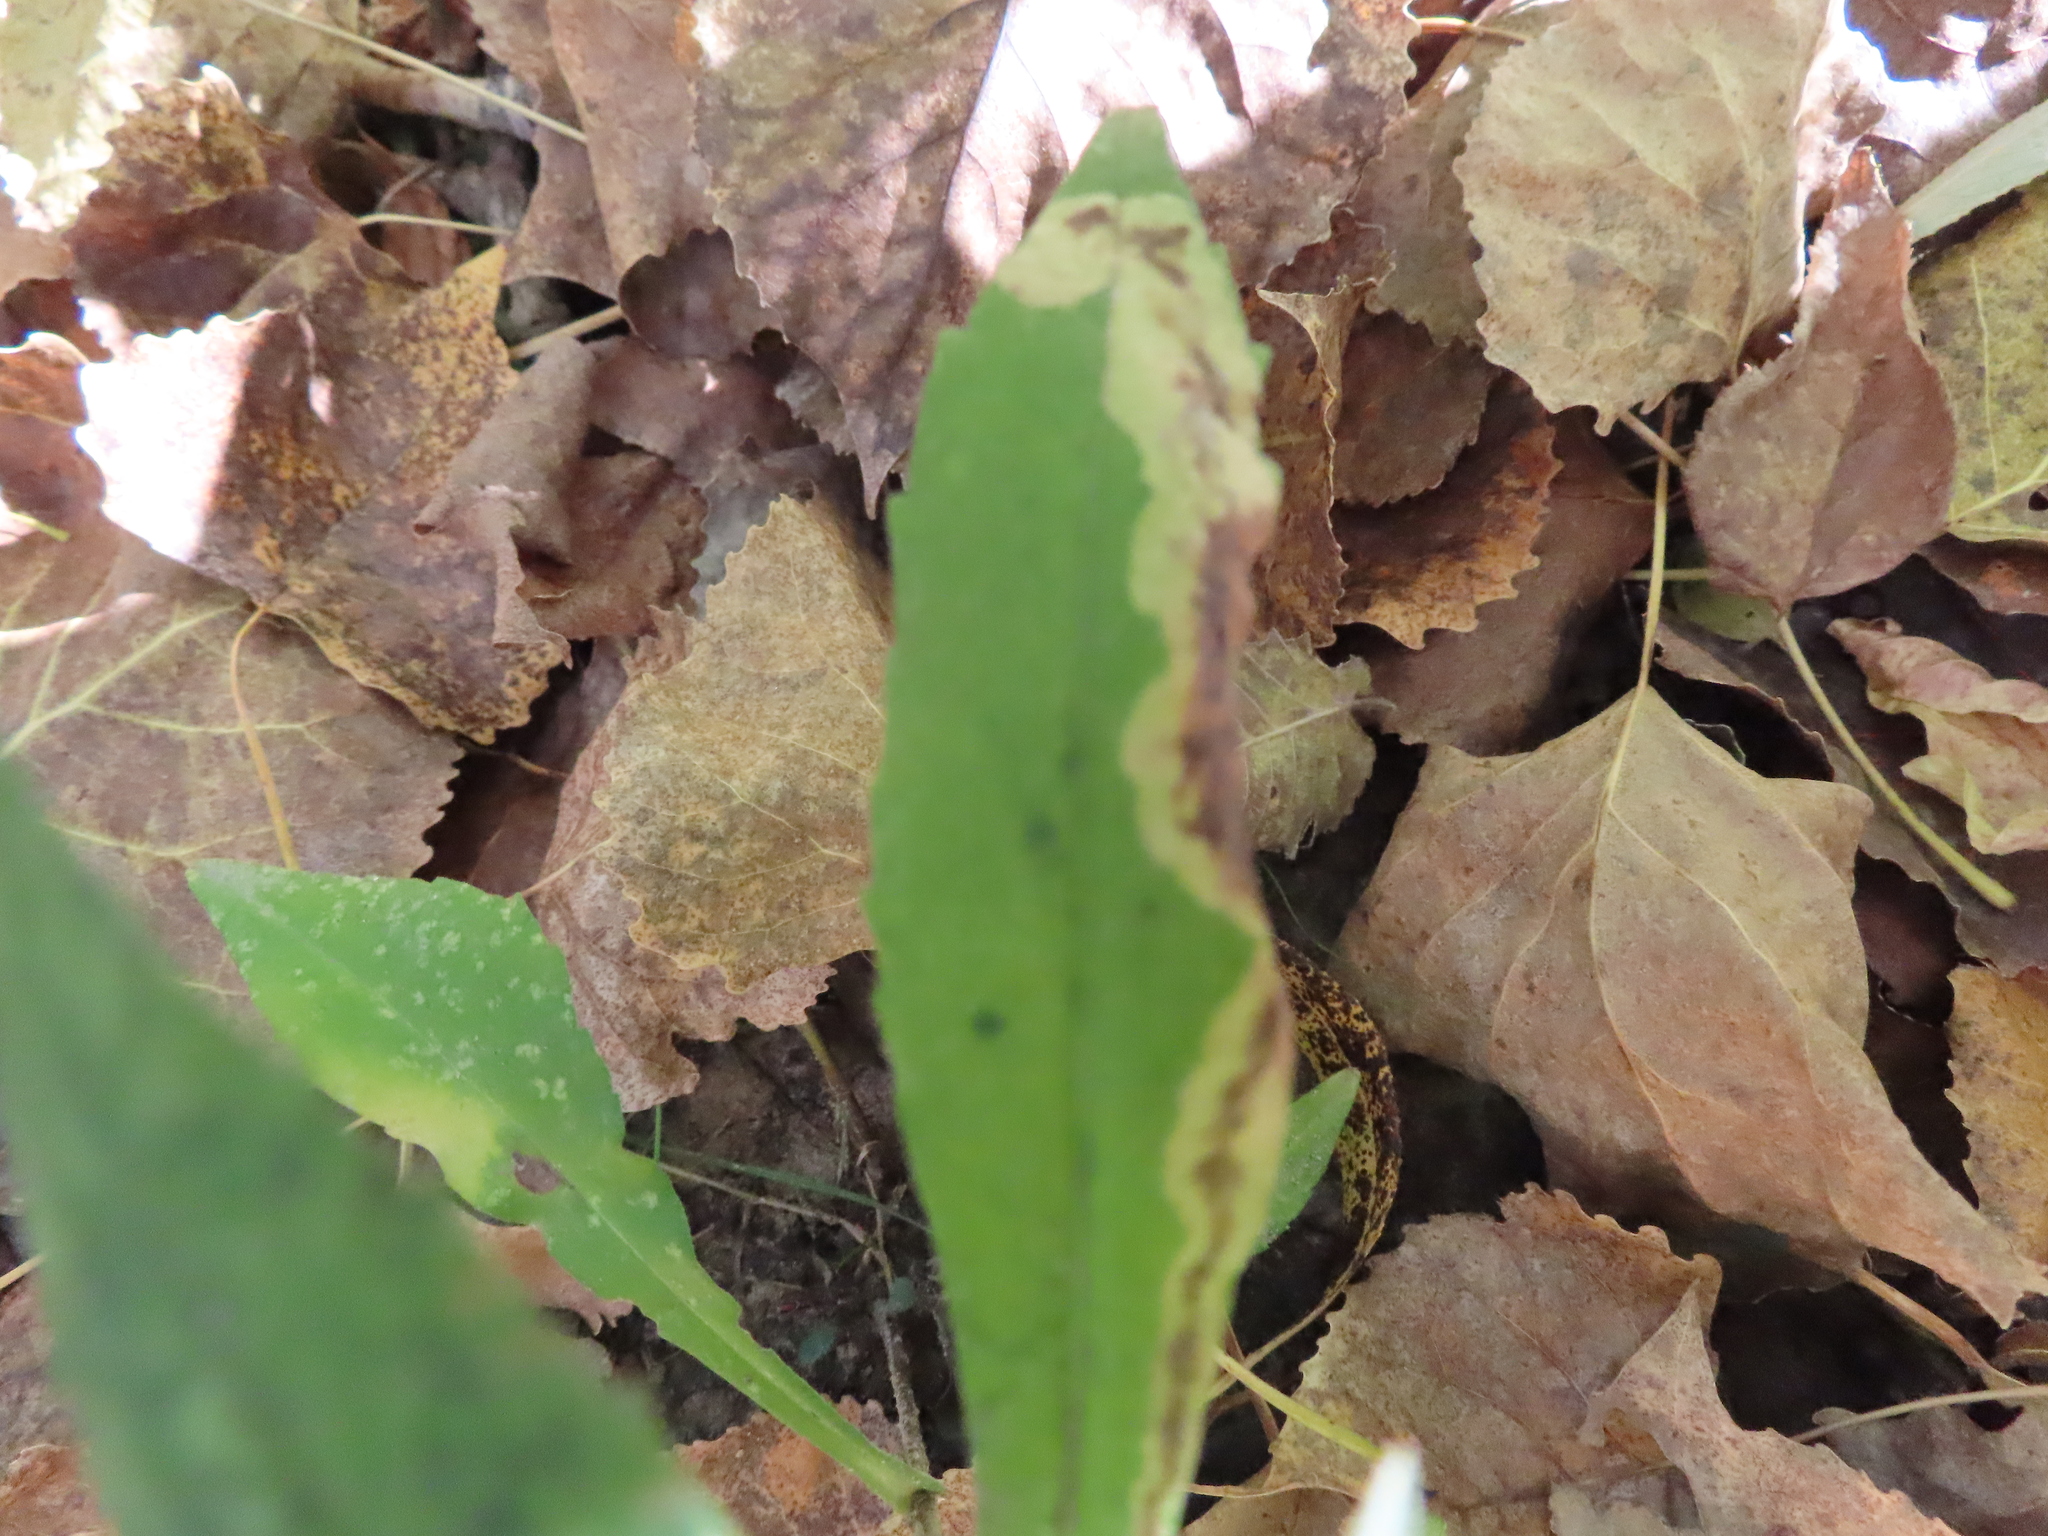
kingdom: Animalia
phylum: Arthropoda
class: Insecta
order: Diptera
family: Agromyzidae
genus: Nemorimyza
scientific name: Nemorimyza posticata
